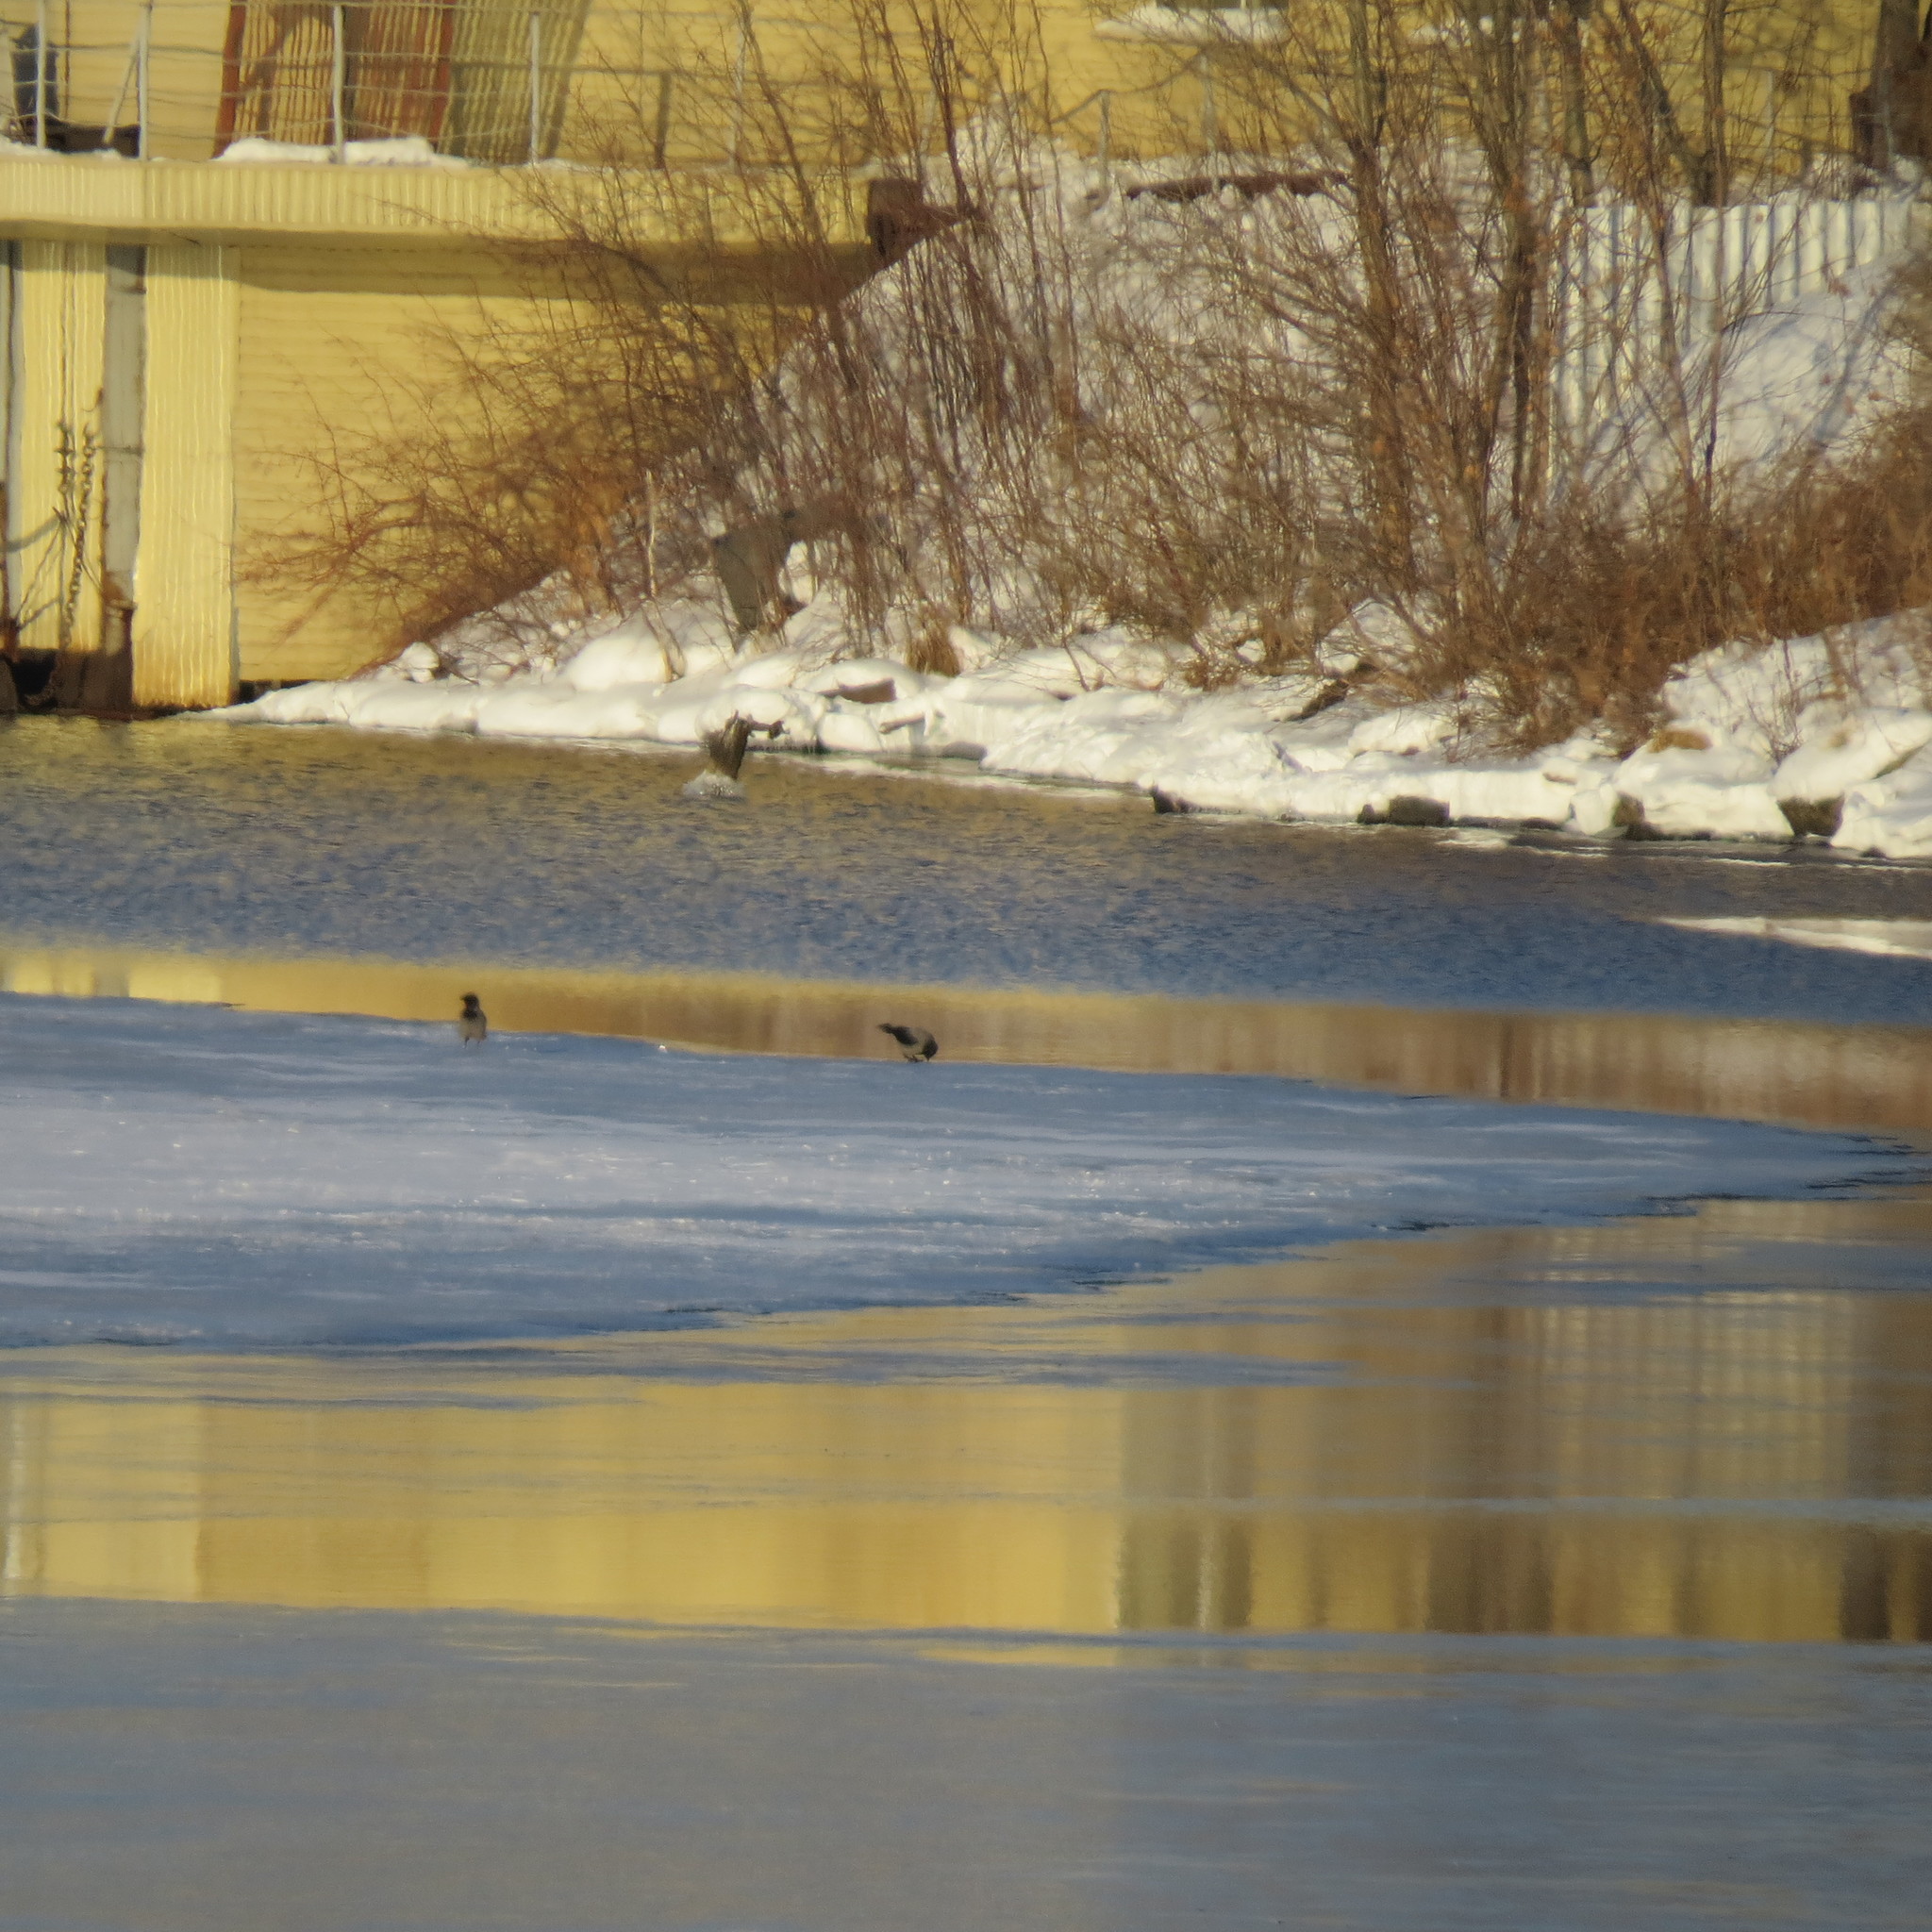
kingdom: Animalia
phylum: Chordata
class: Aves
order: Passeriformes
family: Corvidae
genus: Corvus
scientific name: Corvus cornix
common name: Hooded crow
